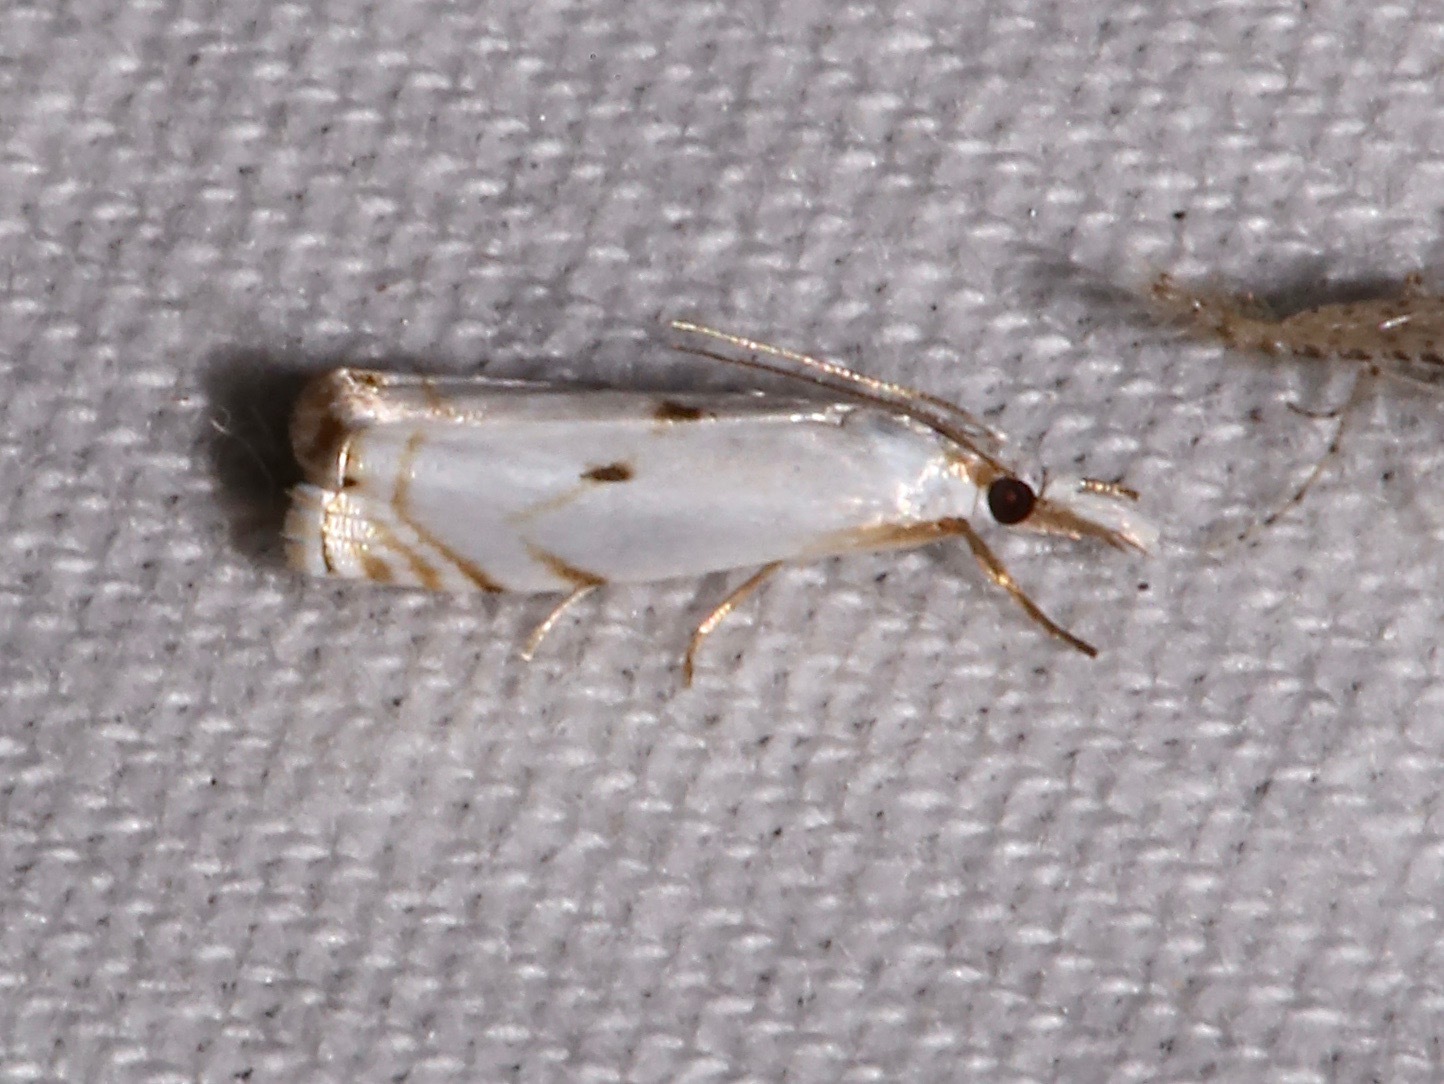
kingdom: Animalia
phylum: Arthropoda
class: Insecta
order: Lepidoptera
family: Crambidae
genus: Microcrambus
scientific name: Microcrambus biguttellus
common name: Gold-stripe grass-veneer moth
